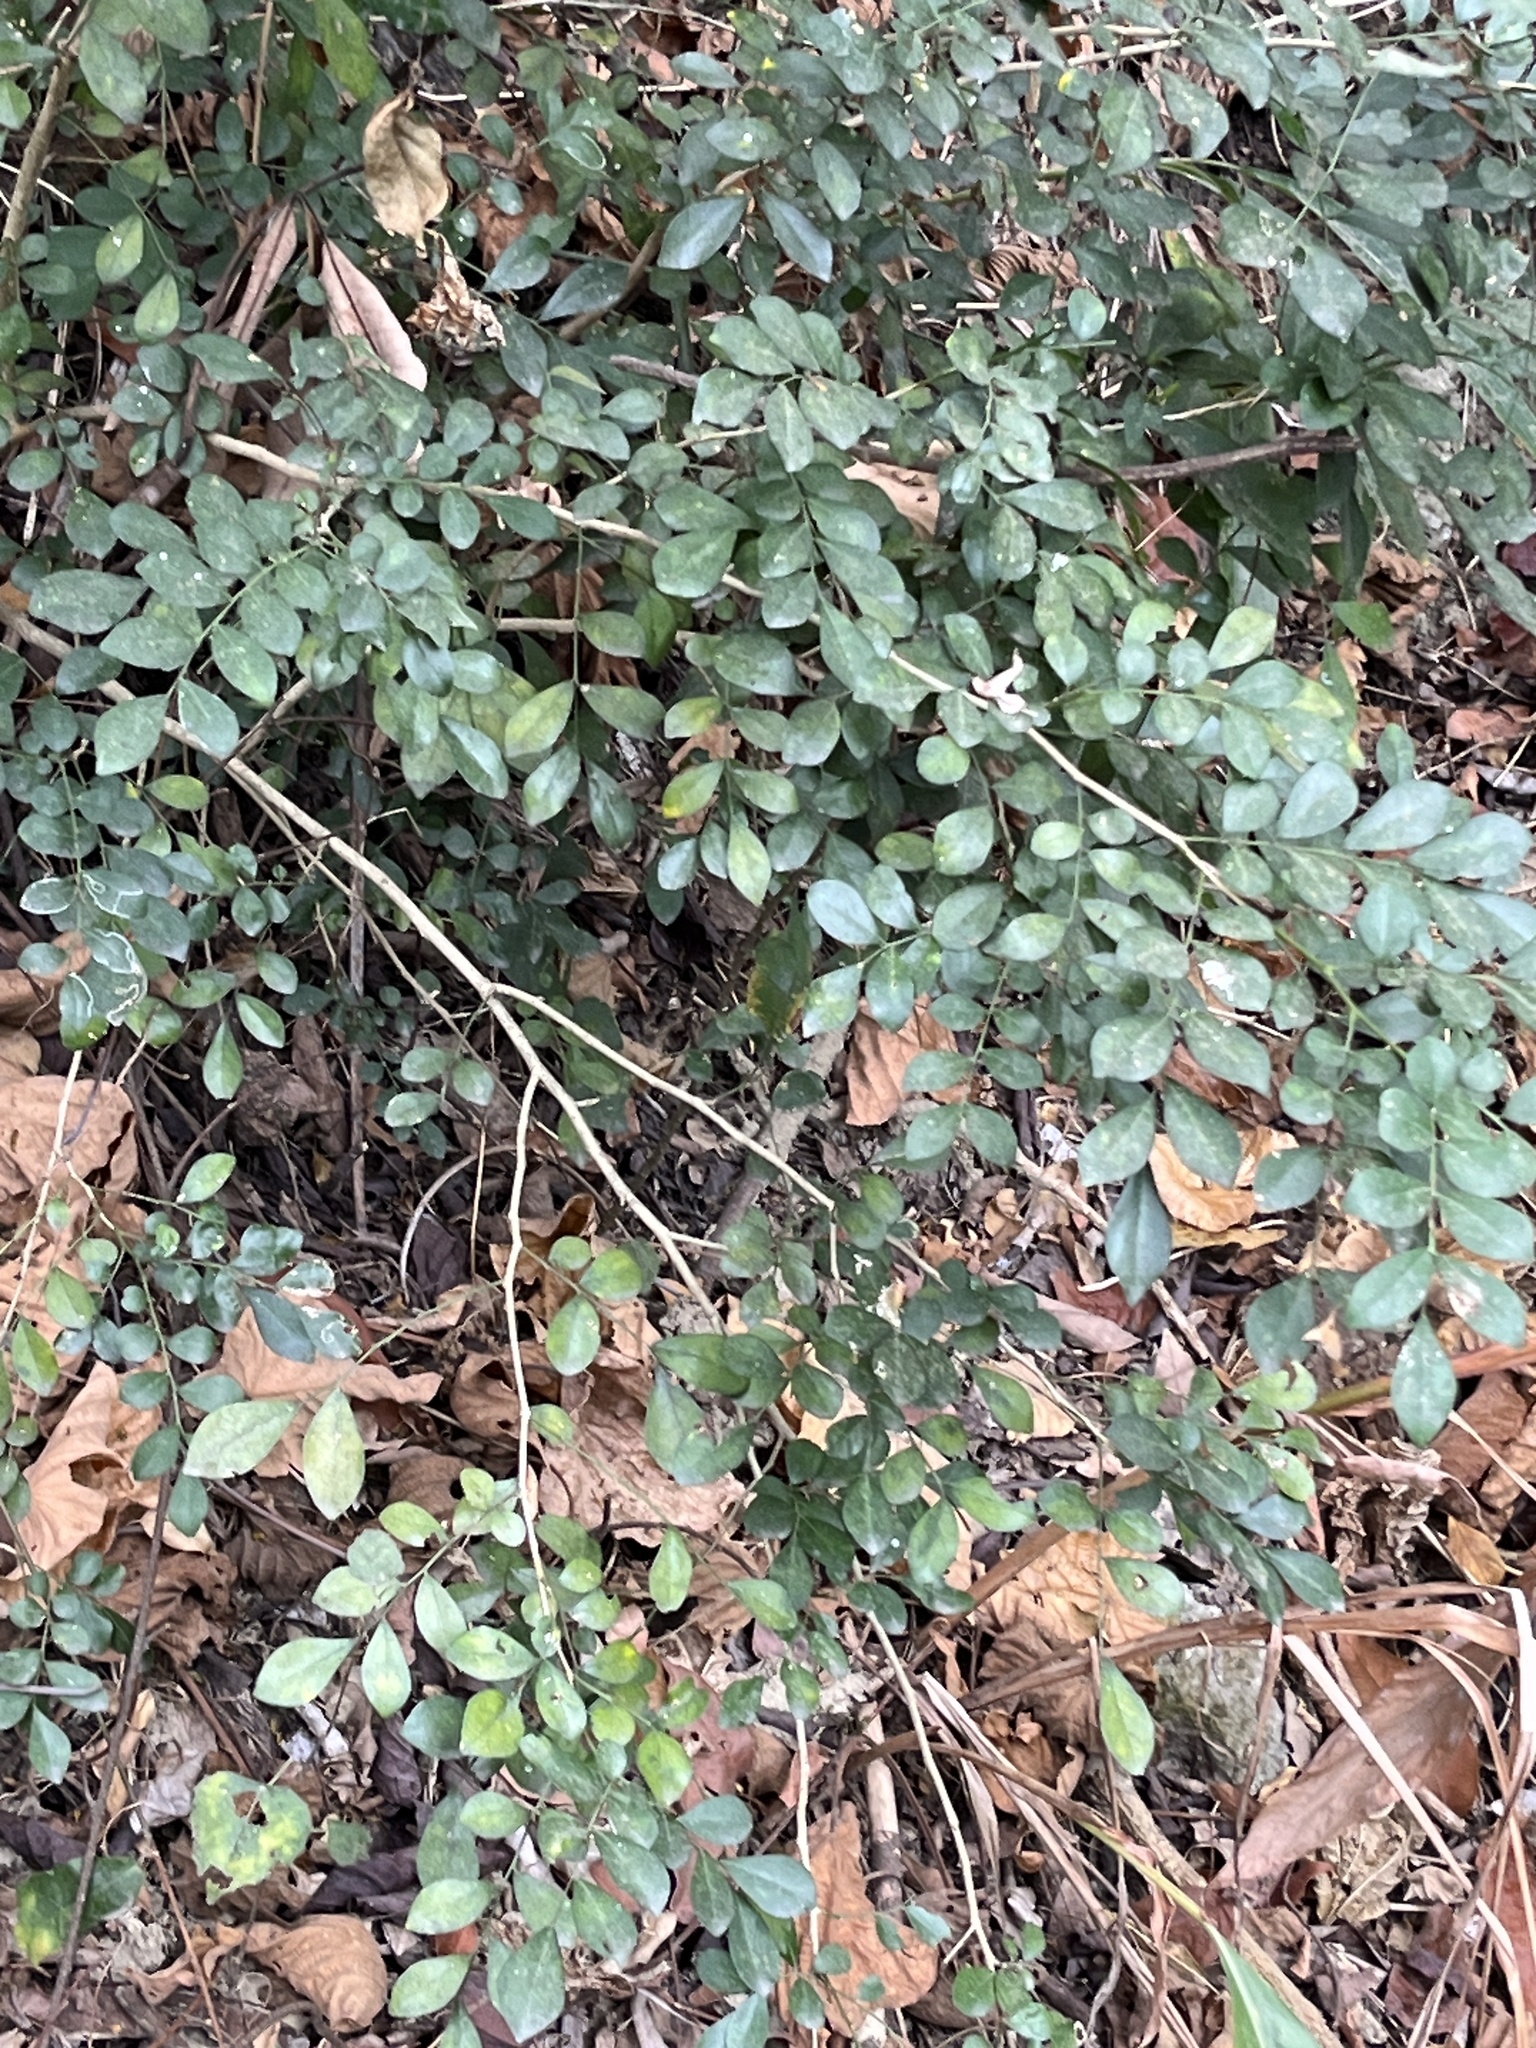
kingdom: Plantae
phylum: Tracheophyta
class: Magnoliopsida
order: Sapindales
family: Rutaceae
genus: Murraya
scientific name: Murraya paniculata
